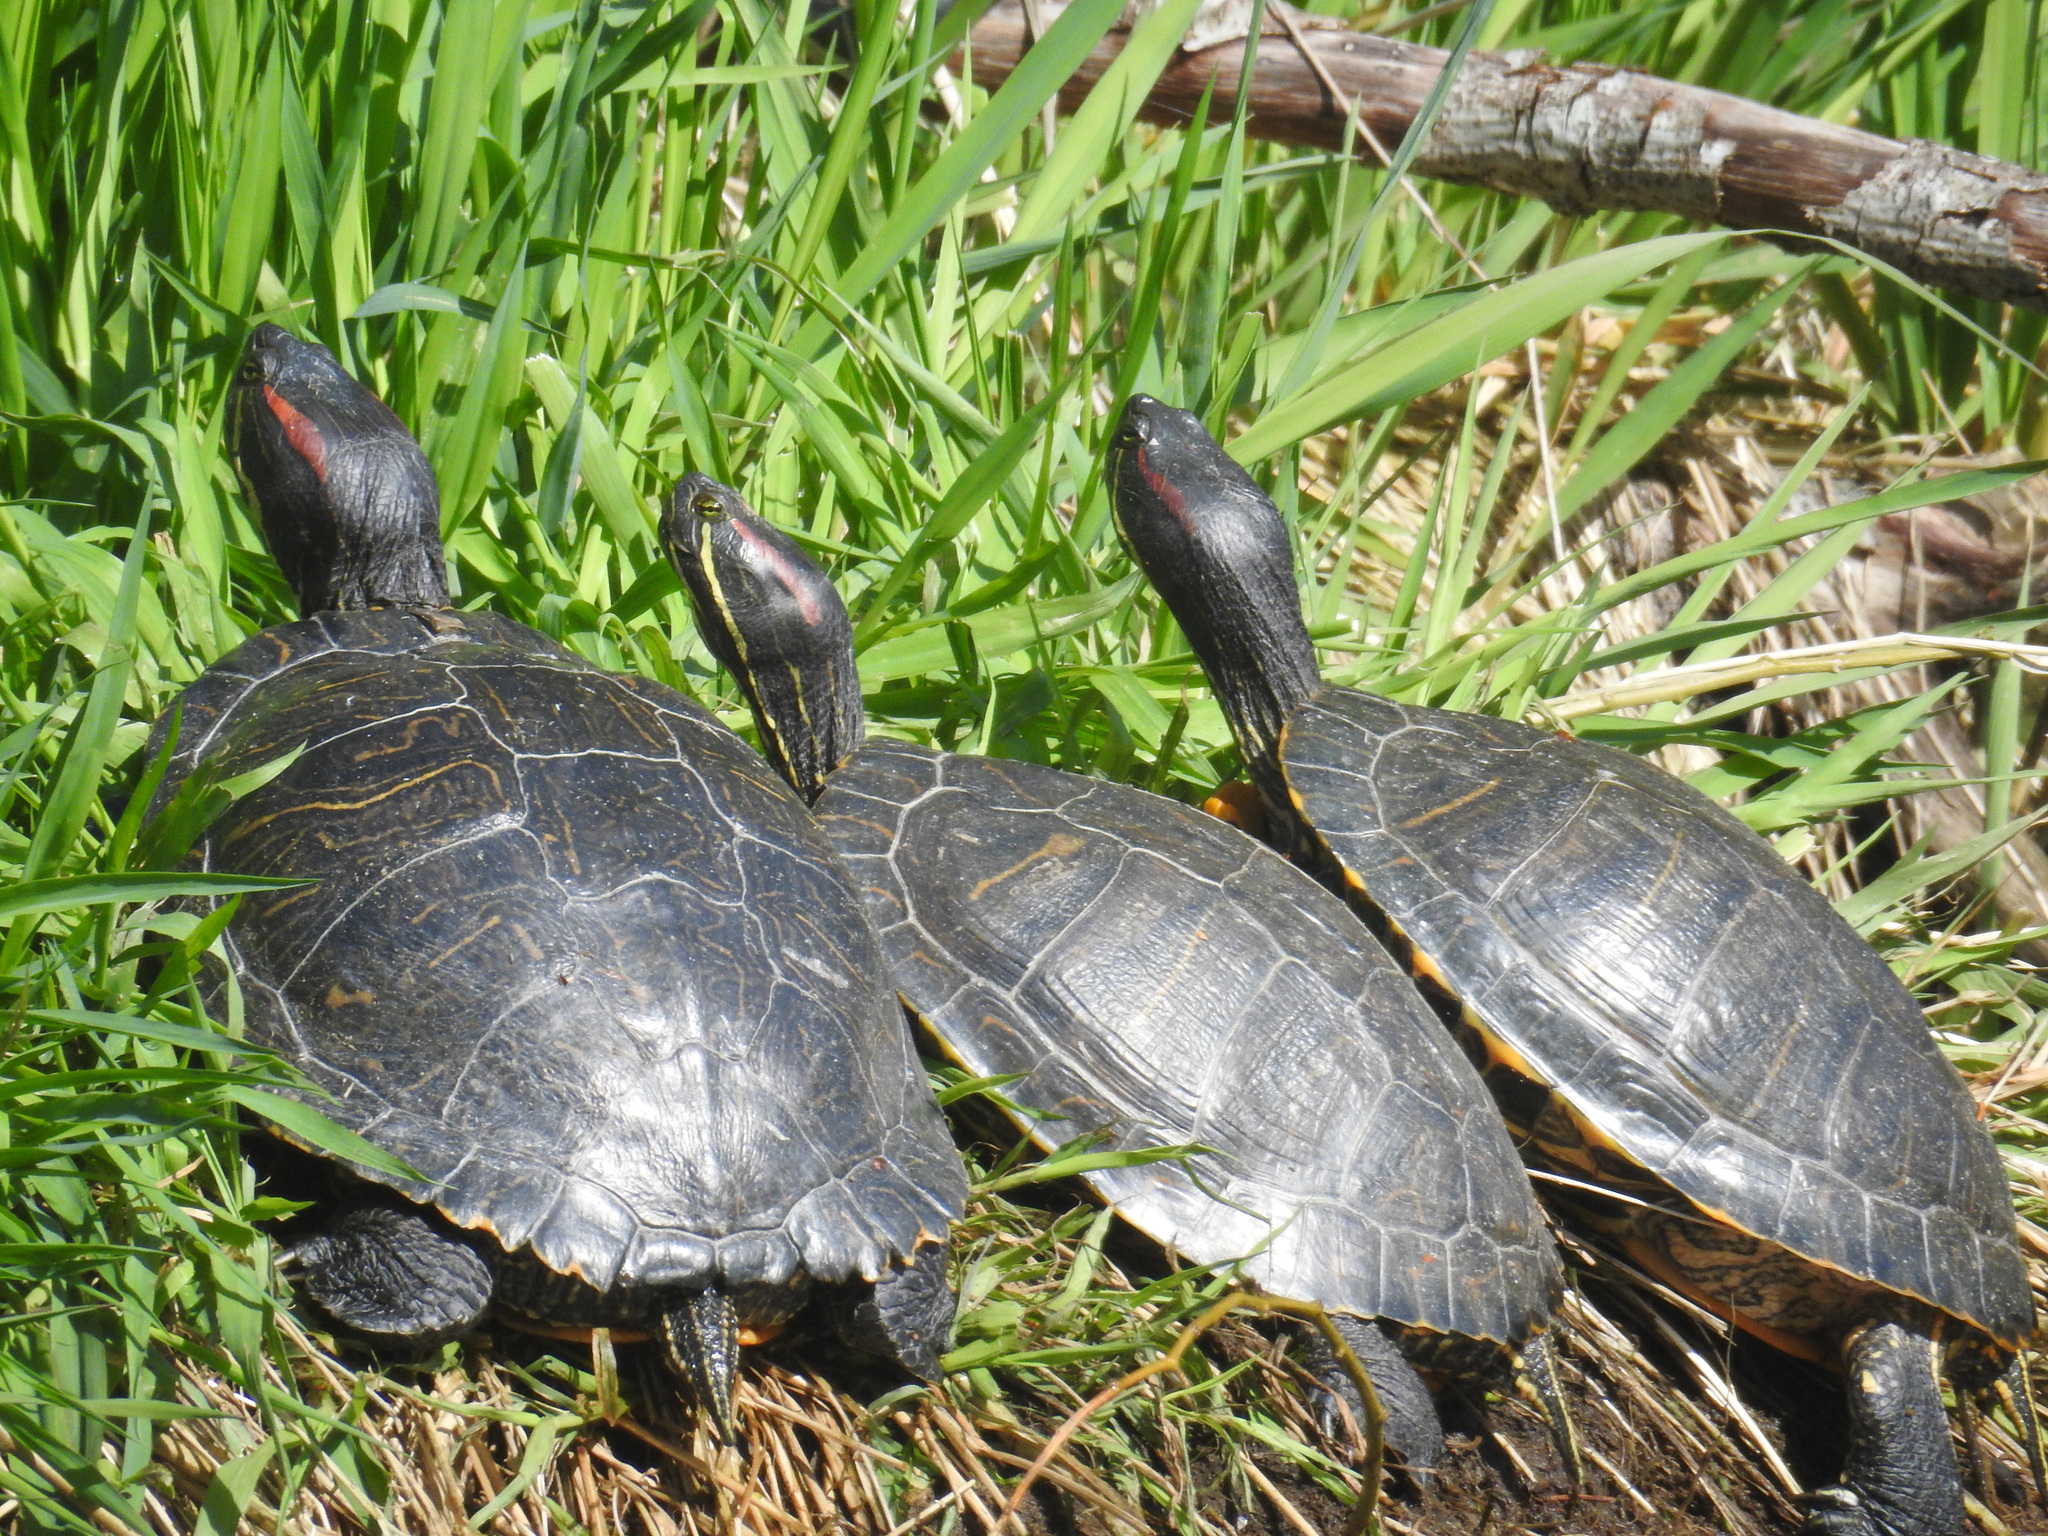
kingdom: Animalia
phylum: Chordata
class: Testudines
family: Emydidae
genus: Trachemys
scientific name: Trachemys scripta
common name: Slider
